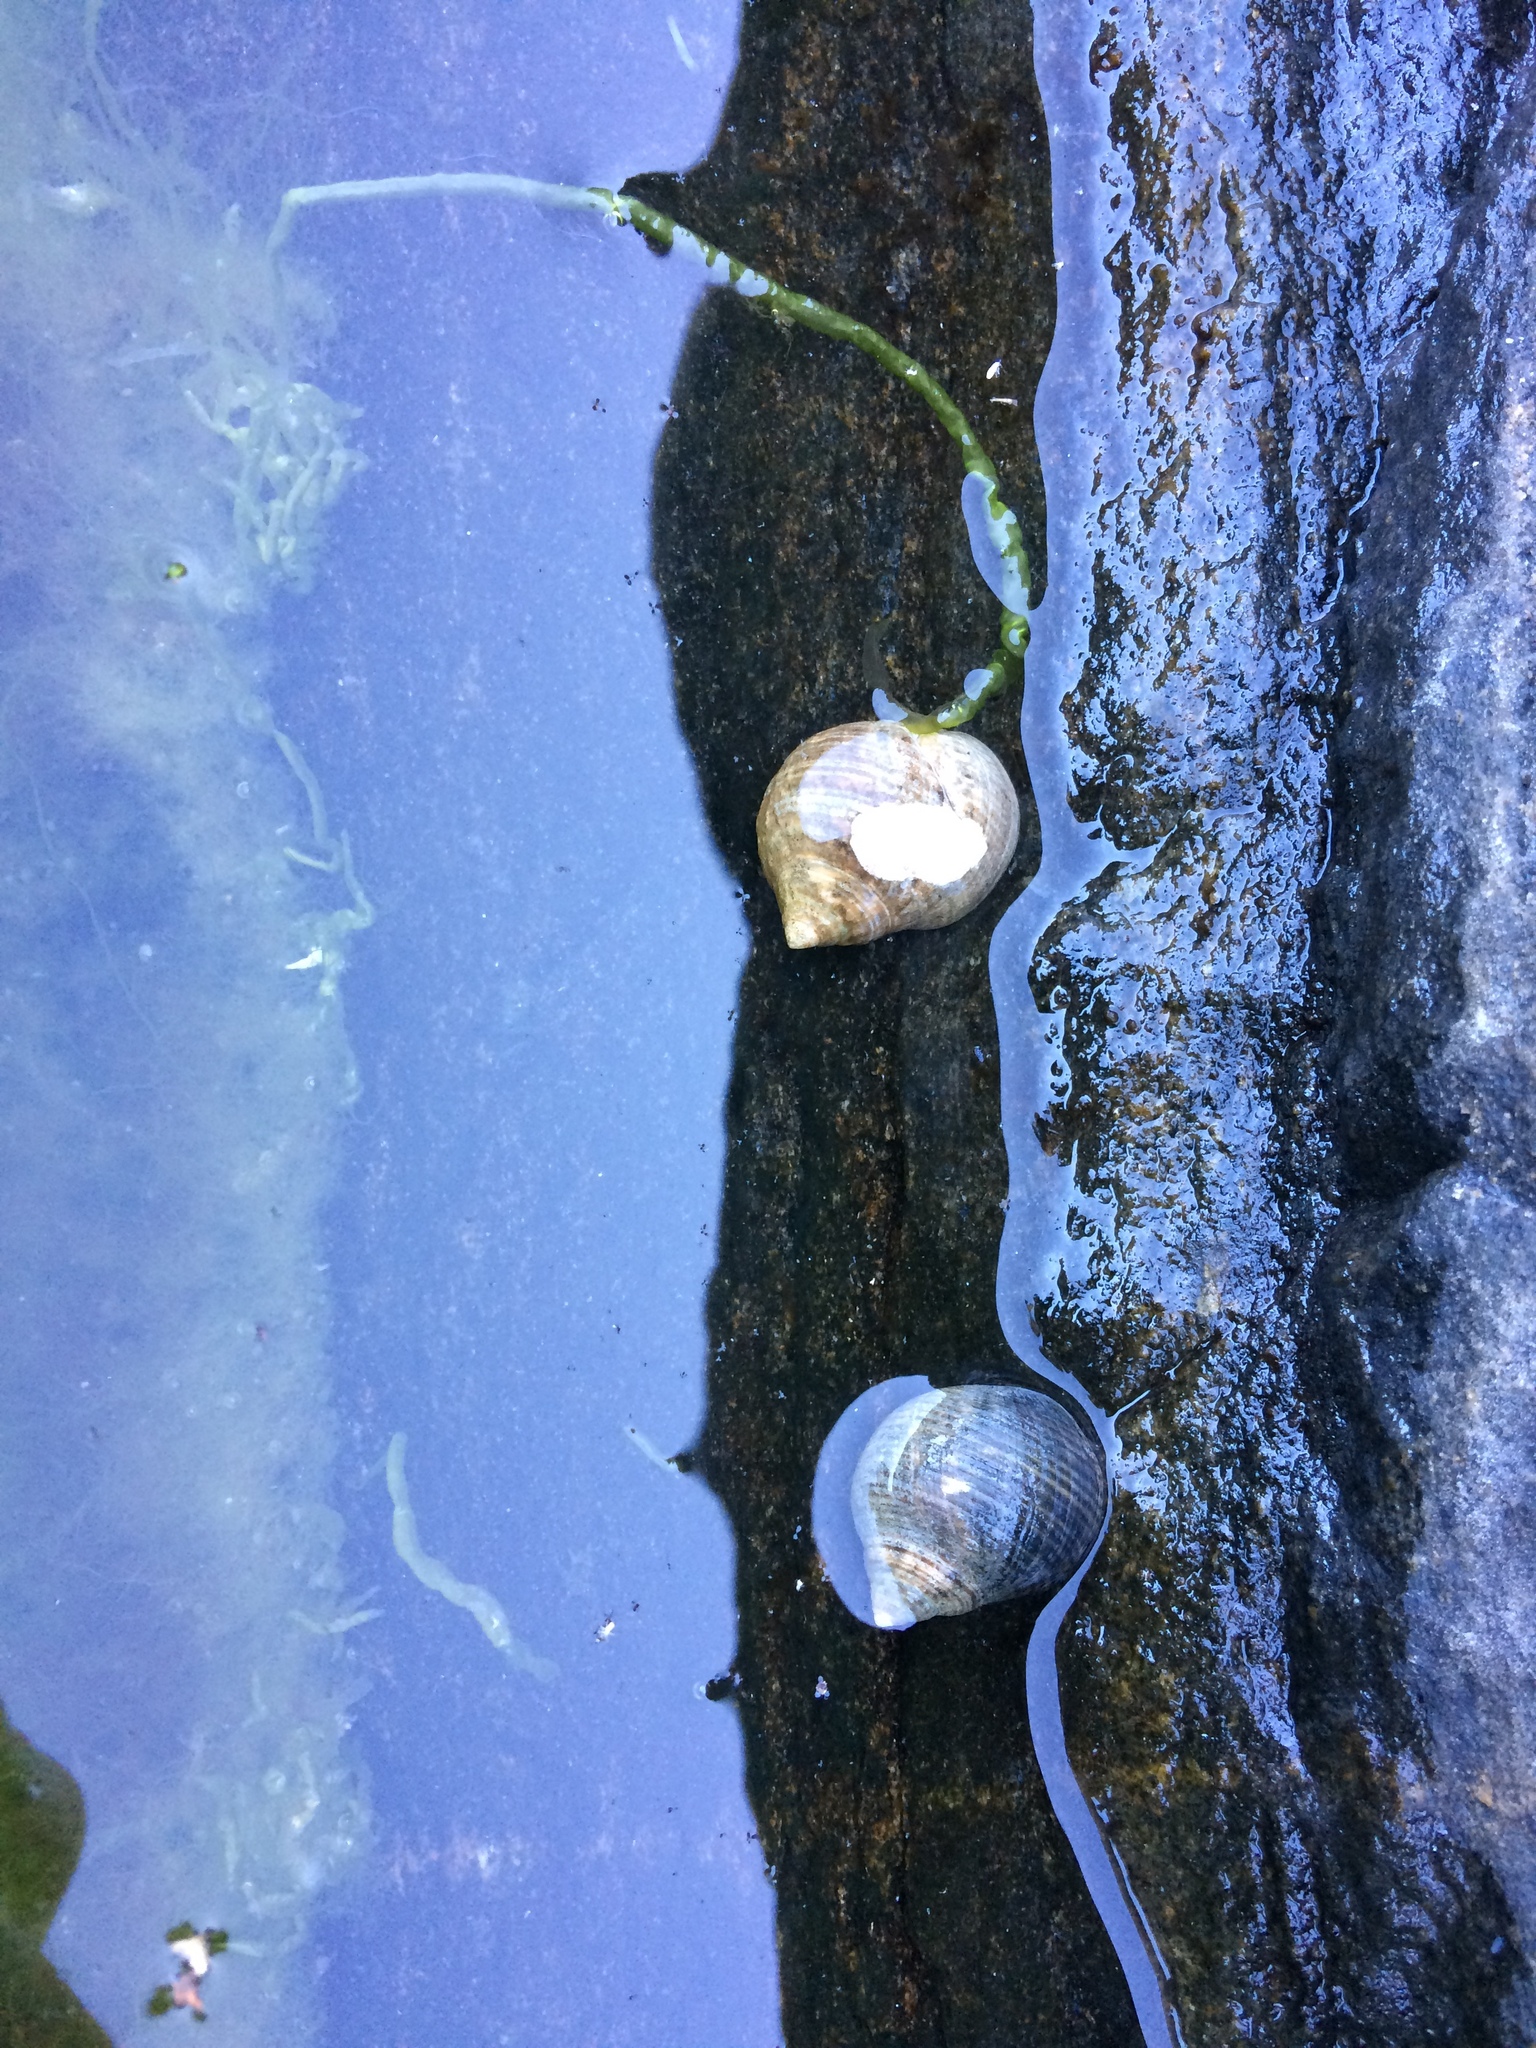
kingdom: Animalia
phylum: Mollusca
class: Gastropoda
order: Littorinimorpha
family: Littorinidae
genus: Littorina
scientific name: Littorina littorea
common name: Common periwinkle
